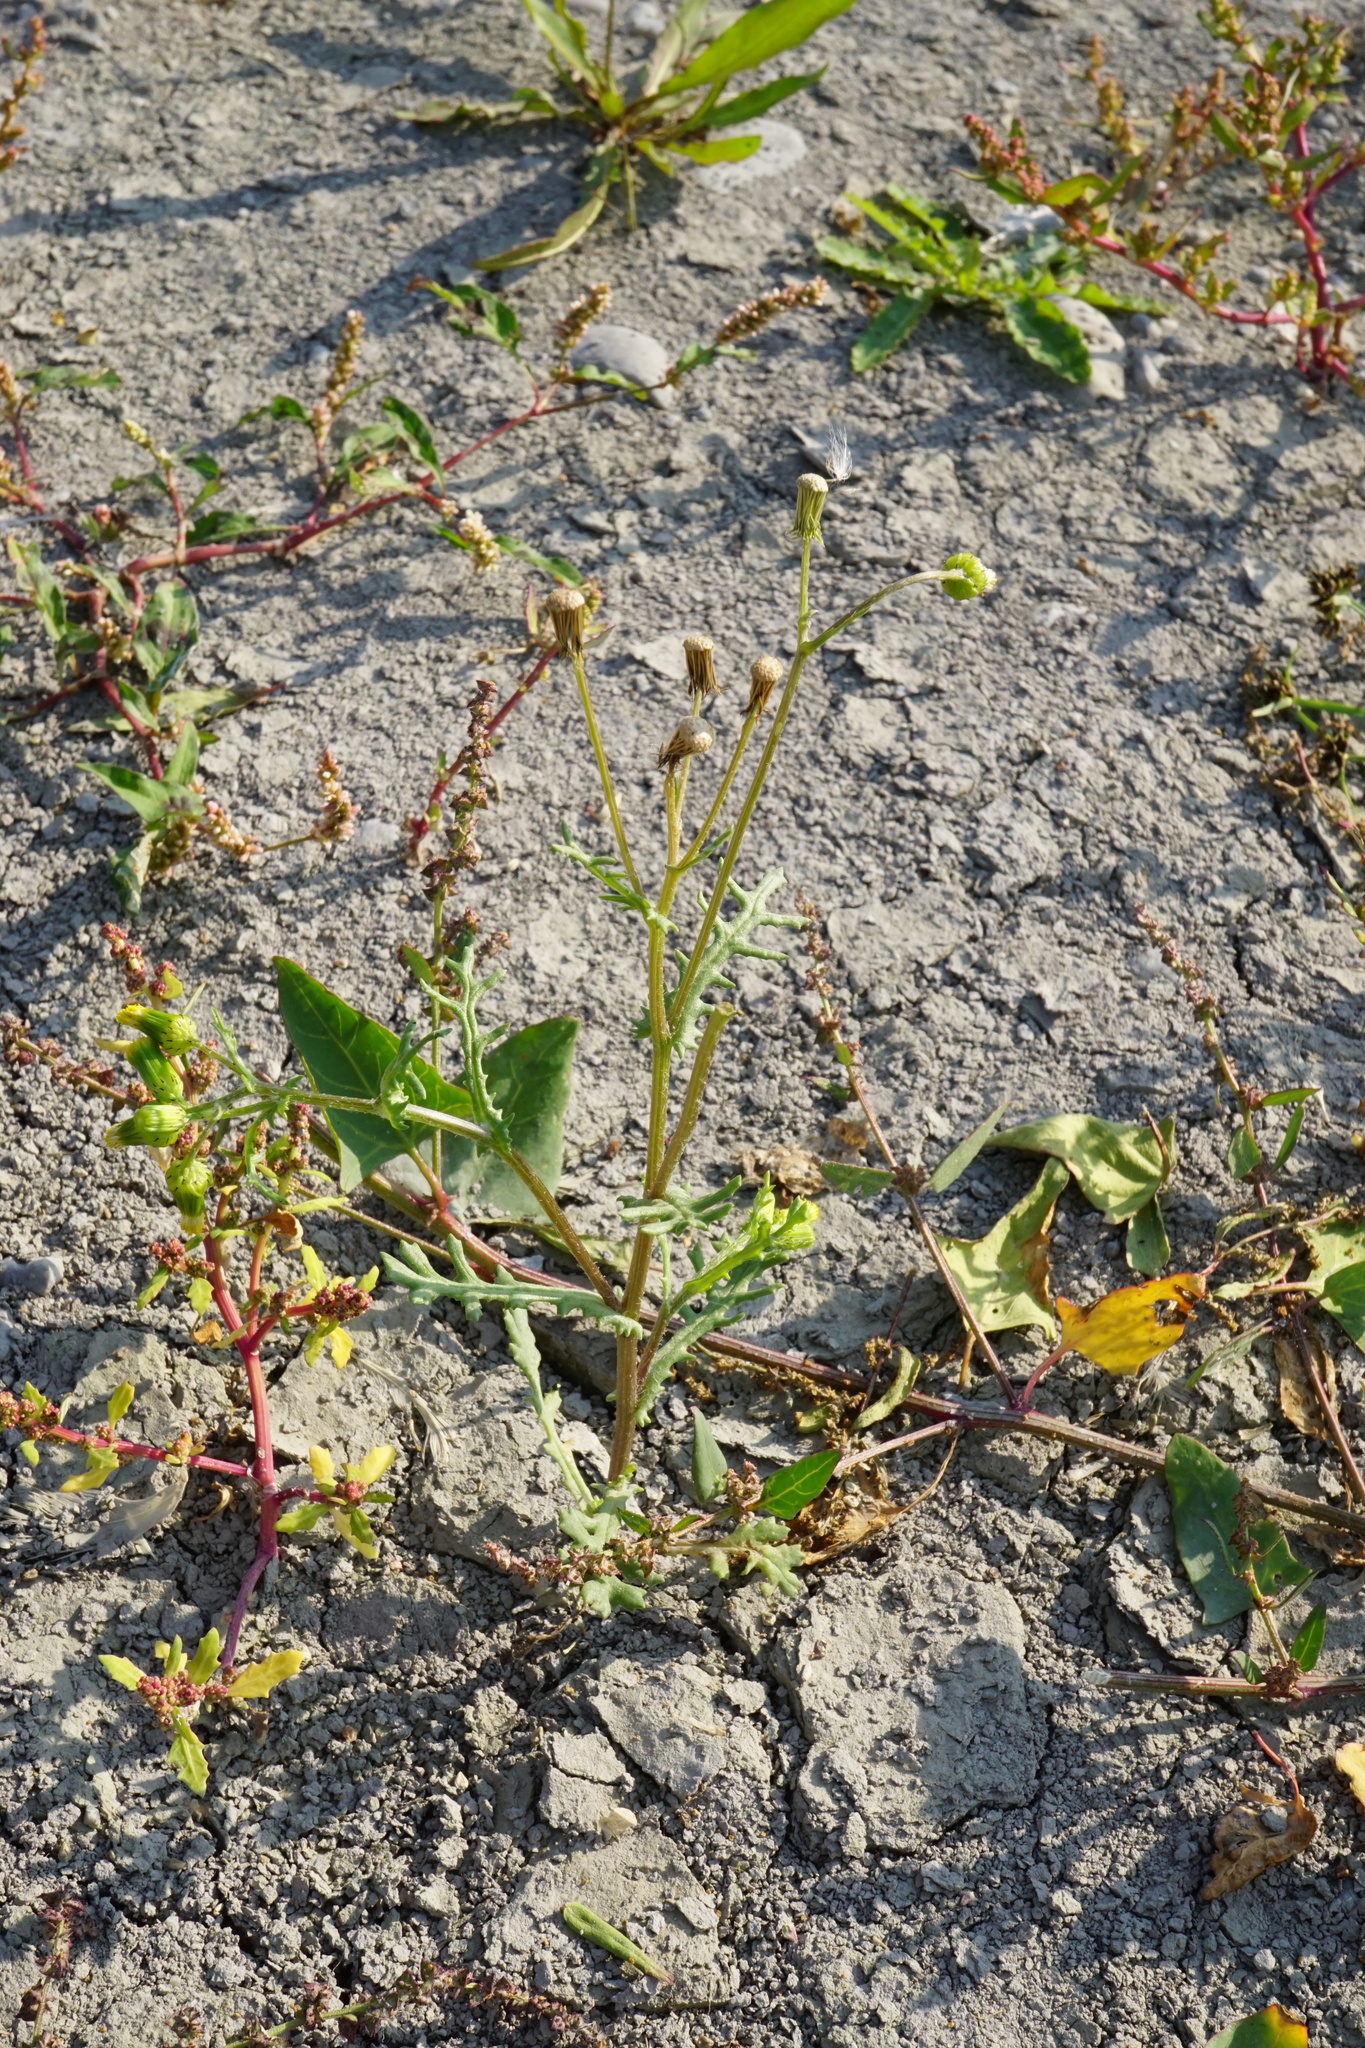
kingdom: Plantae
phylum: Tracheophyta
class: Magnoliopsida
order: Asterales
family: Asteraceae
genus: Senecio
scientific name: Senecio vulgaris
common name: Old-man-in-the-spring
